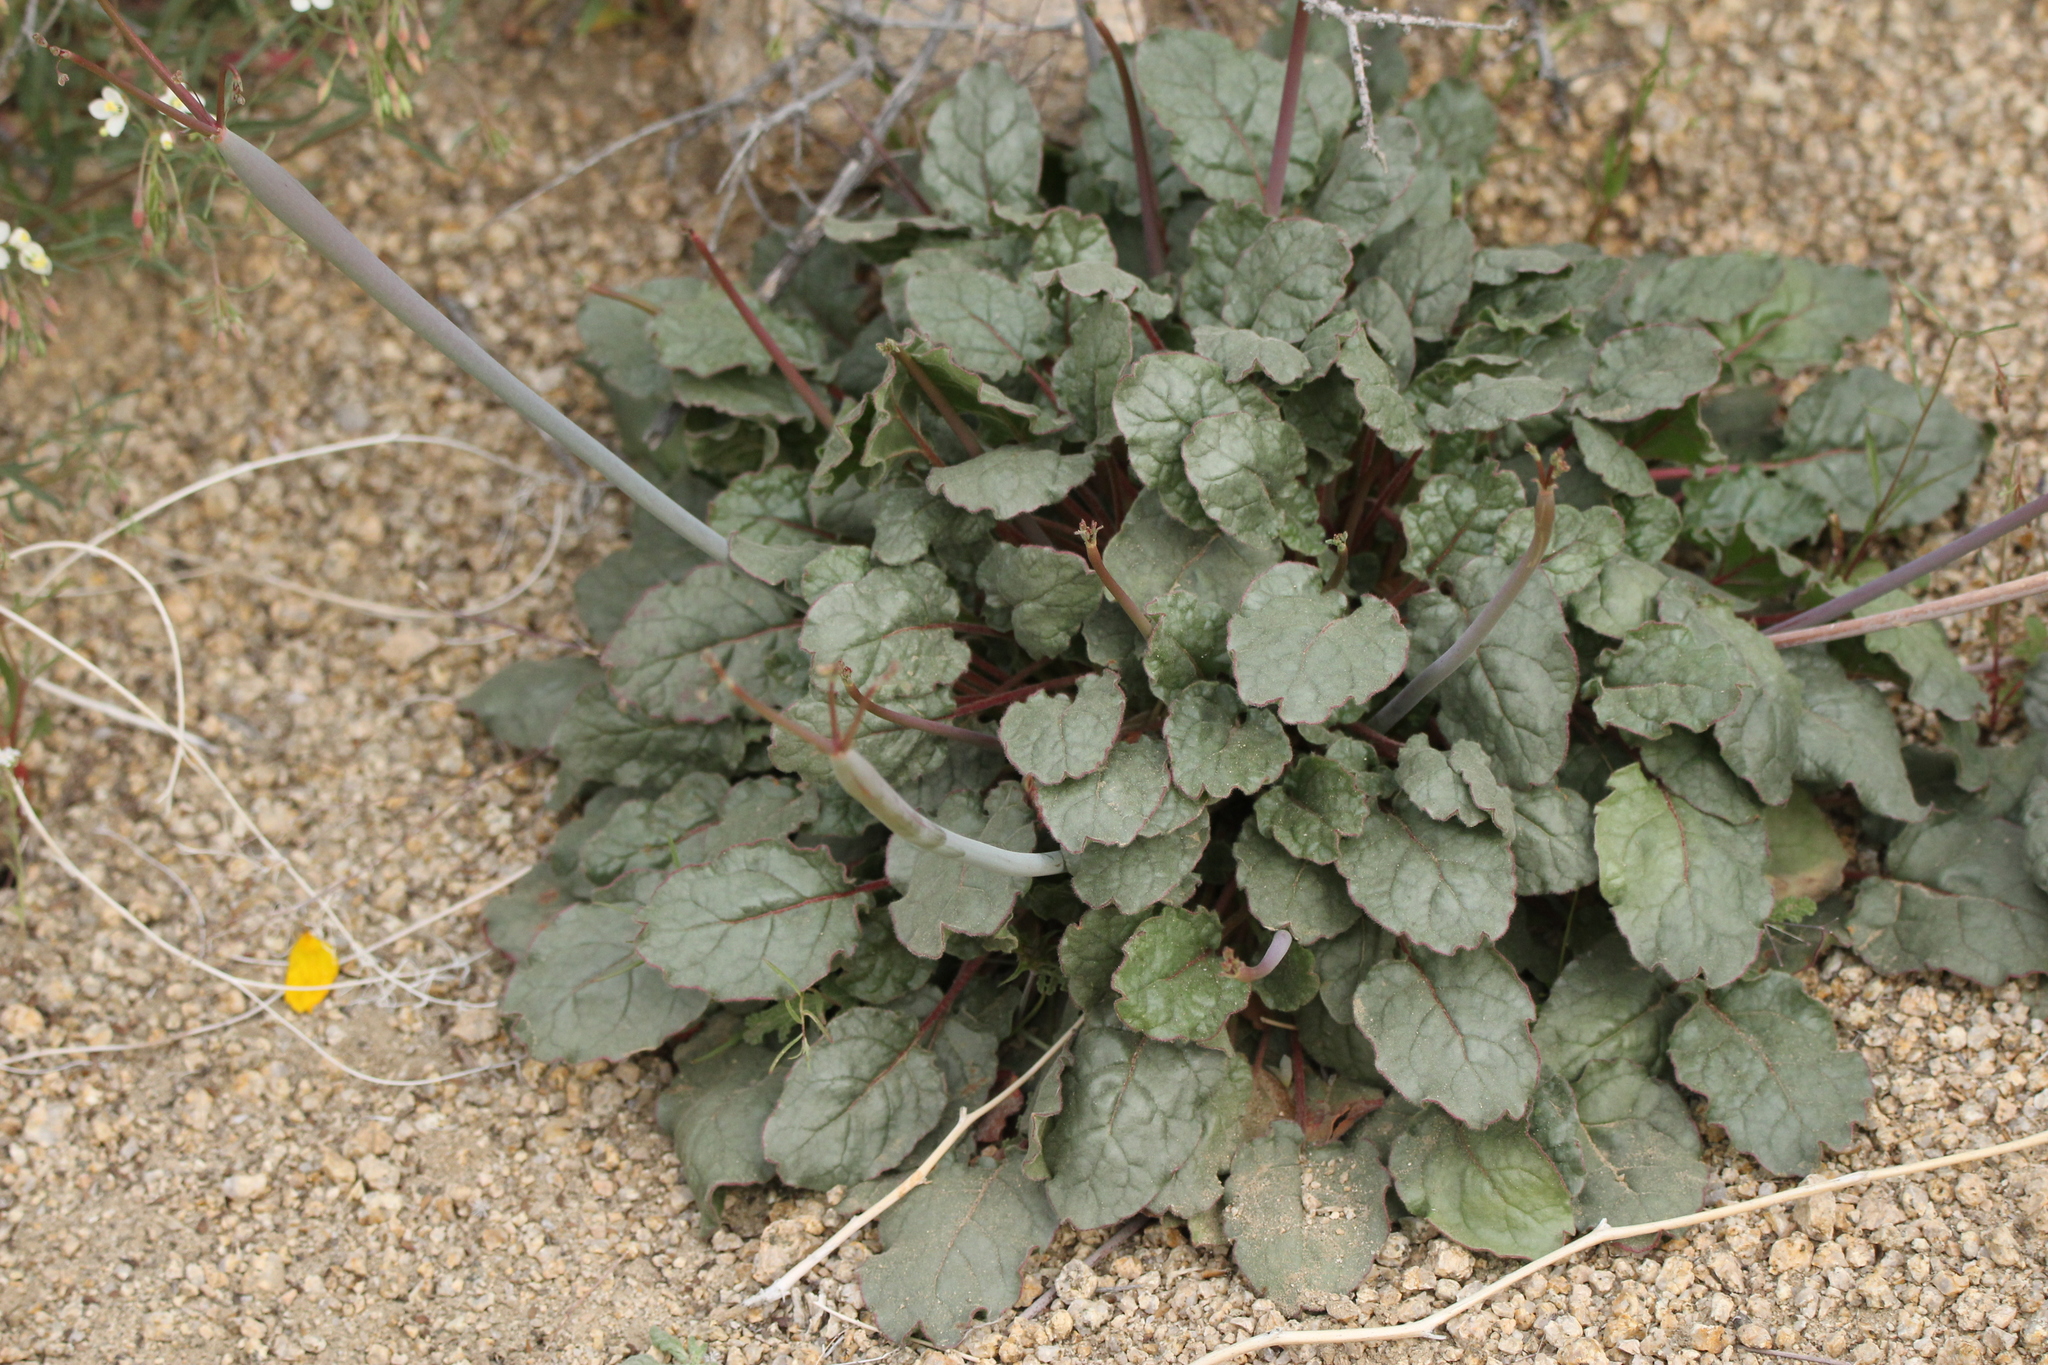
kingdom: Plantae
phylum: Tracheophyta
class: Magnoliopsida
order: Caryophyllales
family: Polygonaceae
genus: Eriogonum
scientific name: Eriogonum inflatum
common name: Desert trumpet
